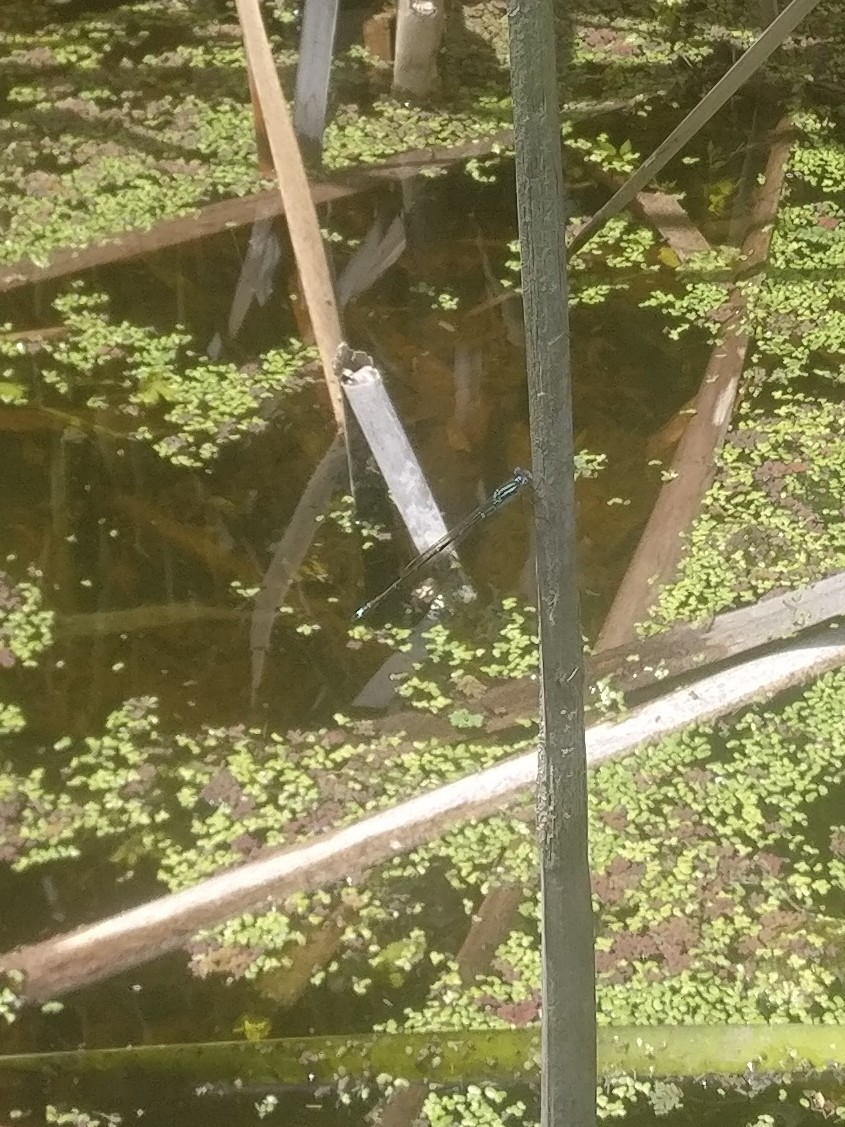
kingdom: Animalia
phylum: Arthropoda
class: Insecta
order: Odonata
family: Lestidae
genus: Austrolestes
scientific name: Austrolestes colensonis
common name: Blue damselfly
